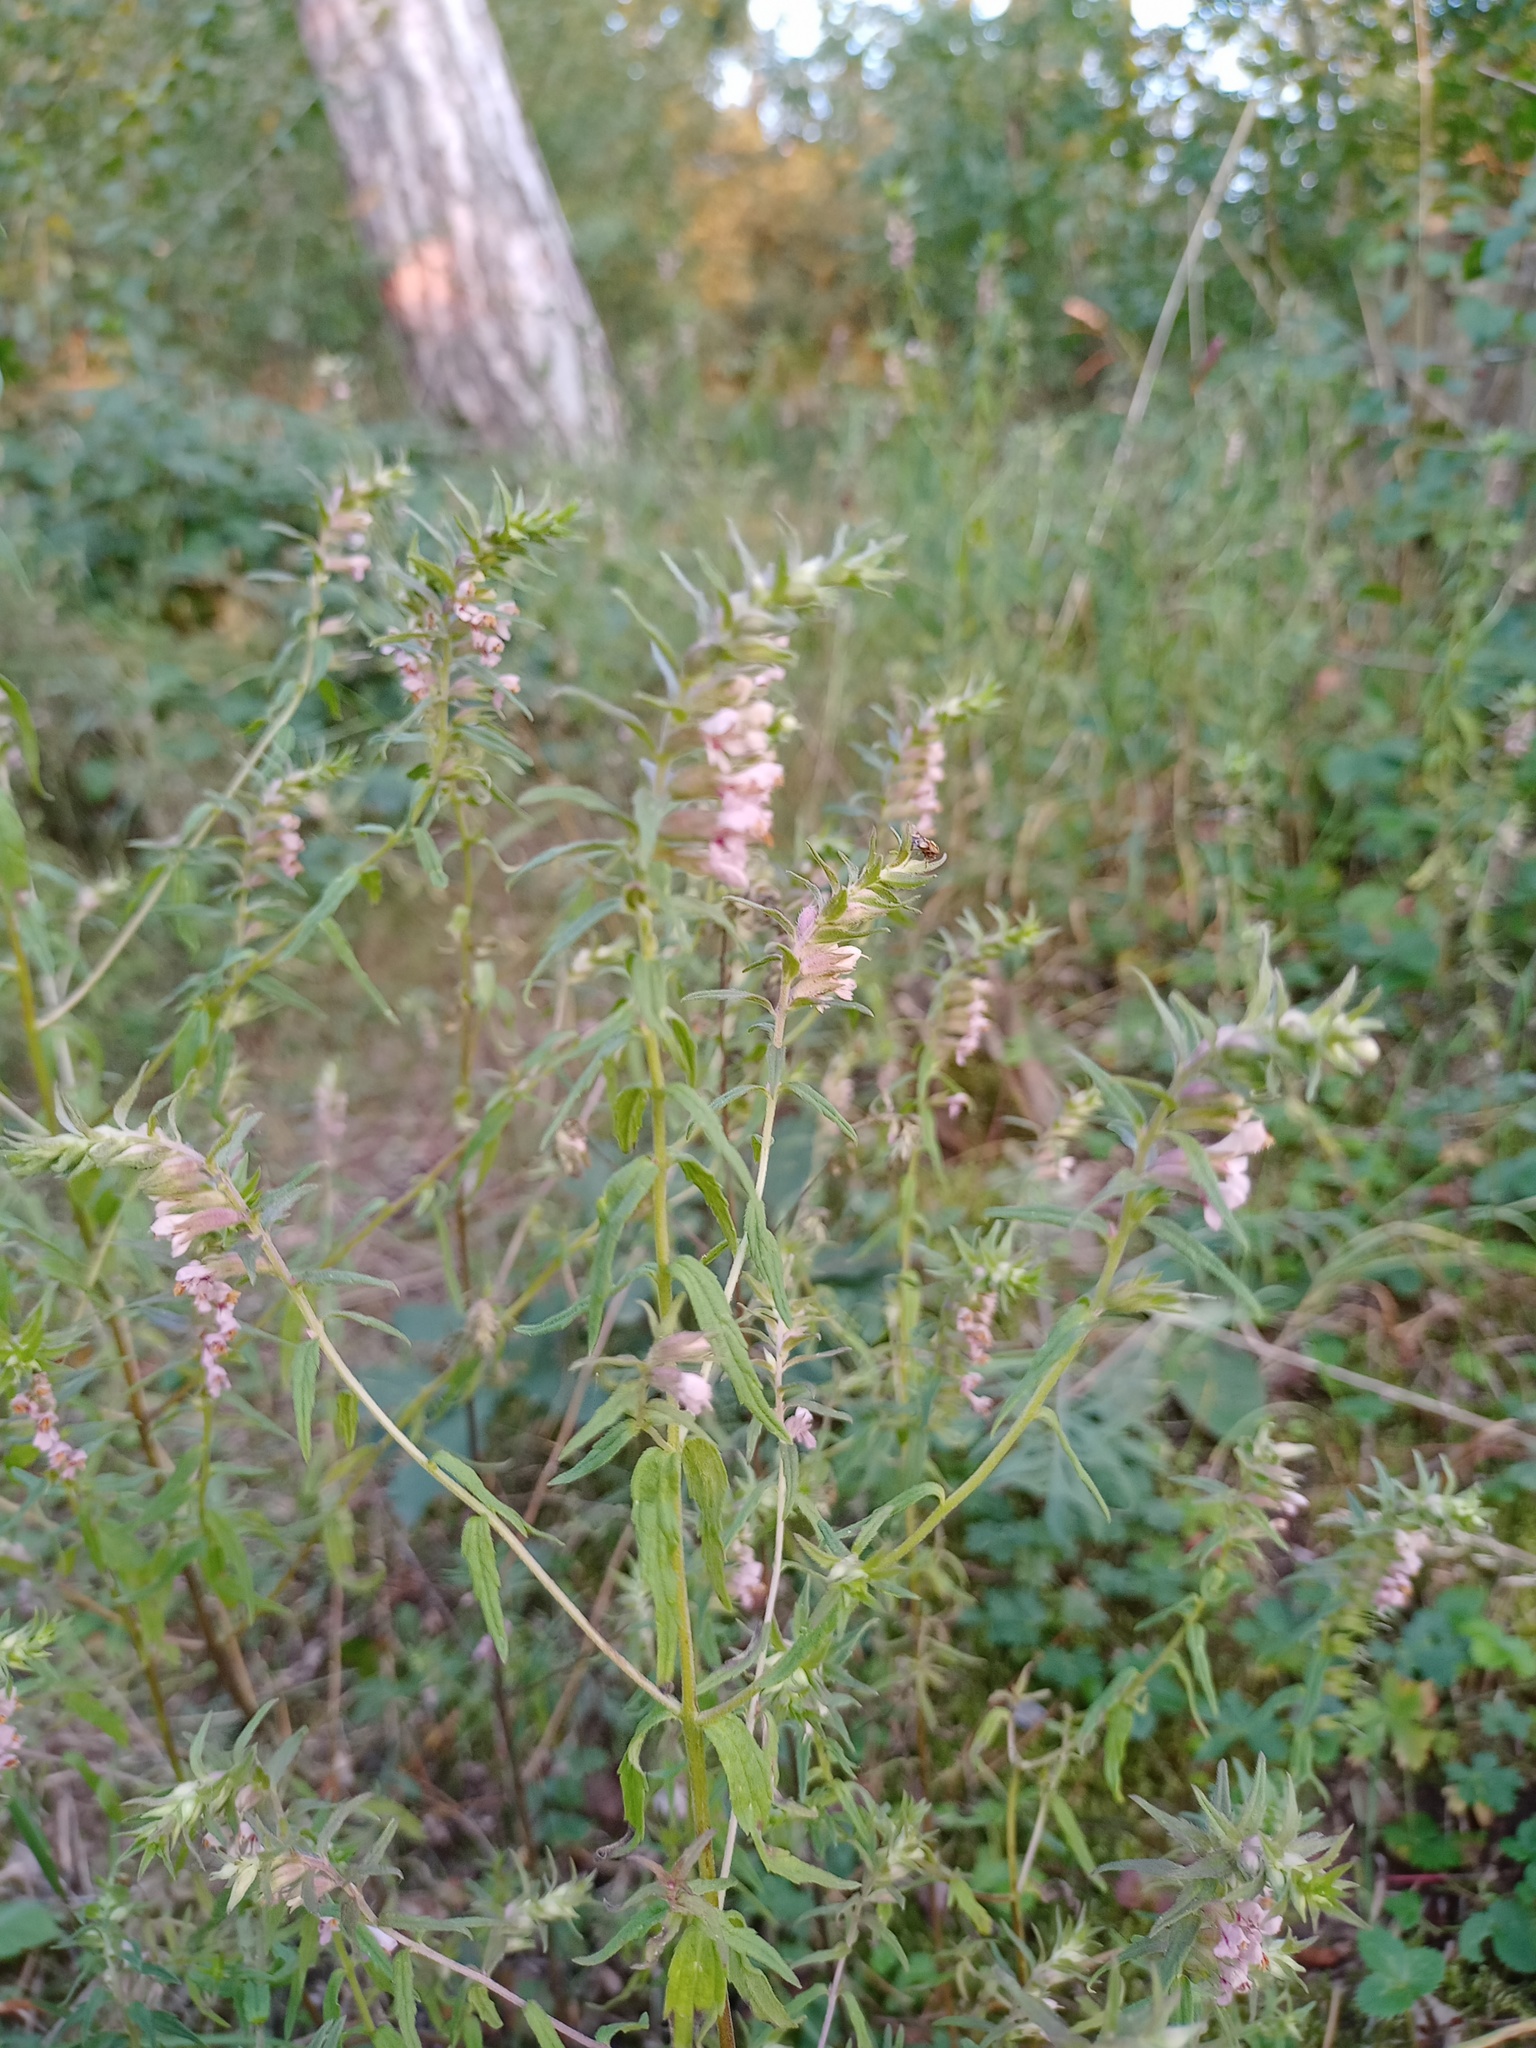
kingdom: Plantae
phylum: Tracheophyta
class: Magnoliopsida
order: Lamiales
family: Orobanchaceae
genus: Odontites
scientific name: Odontites vulgaris
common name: Broomrape
